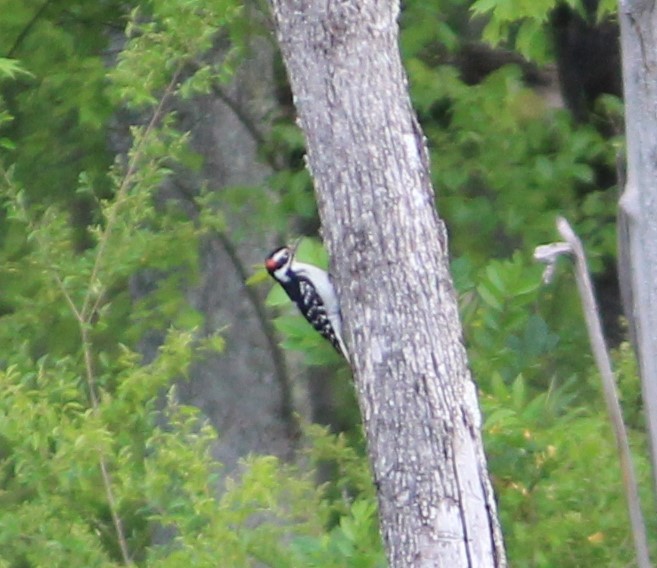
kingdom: Animalia
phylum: Chordata
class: Aves
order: Piciformes
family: Picidae
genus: Leuconotopicus
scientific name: Leuconotopicus villosus
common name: Hairy woodpecker
